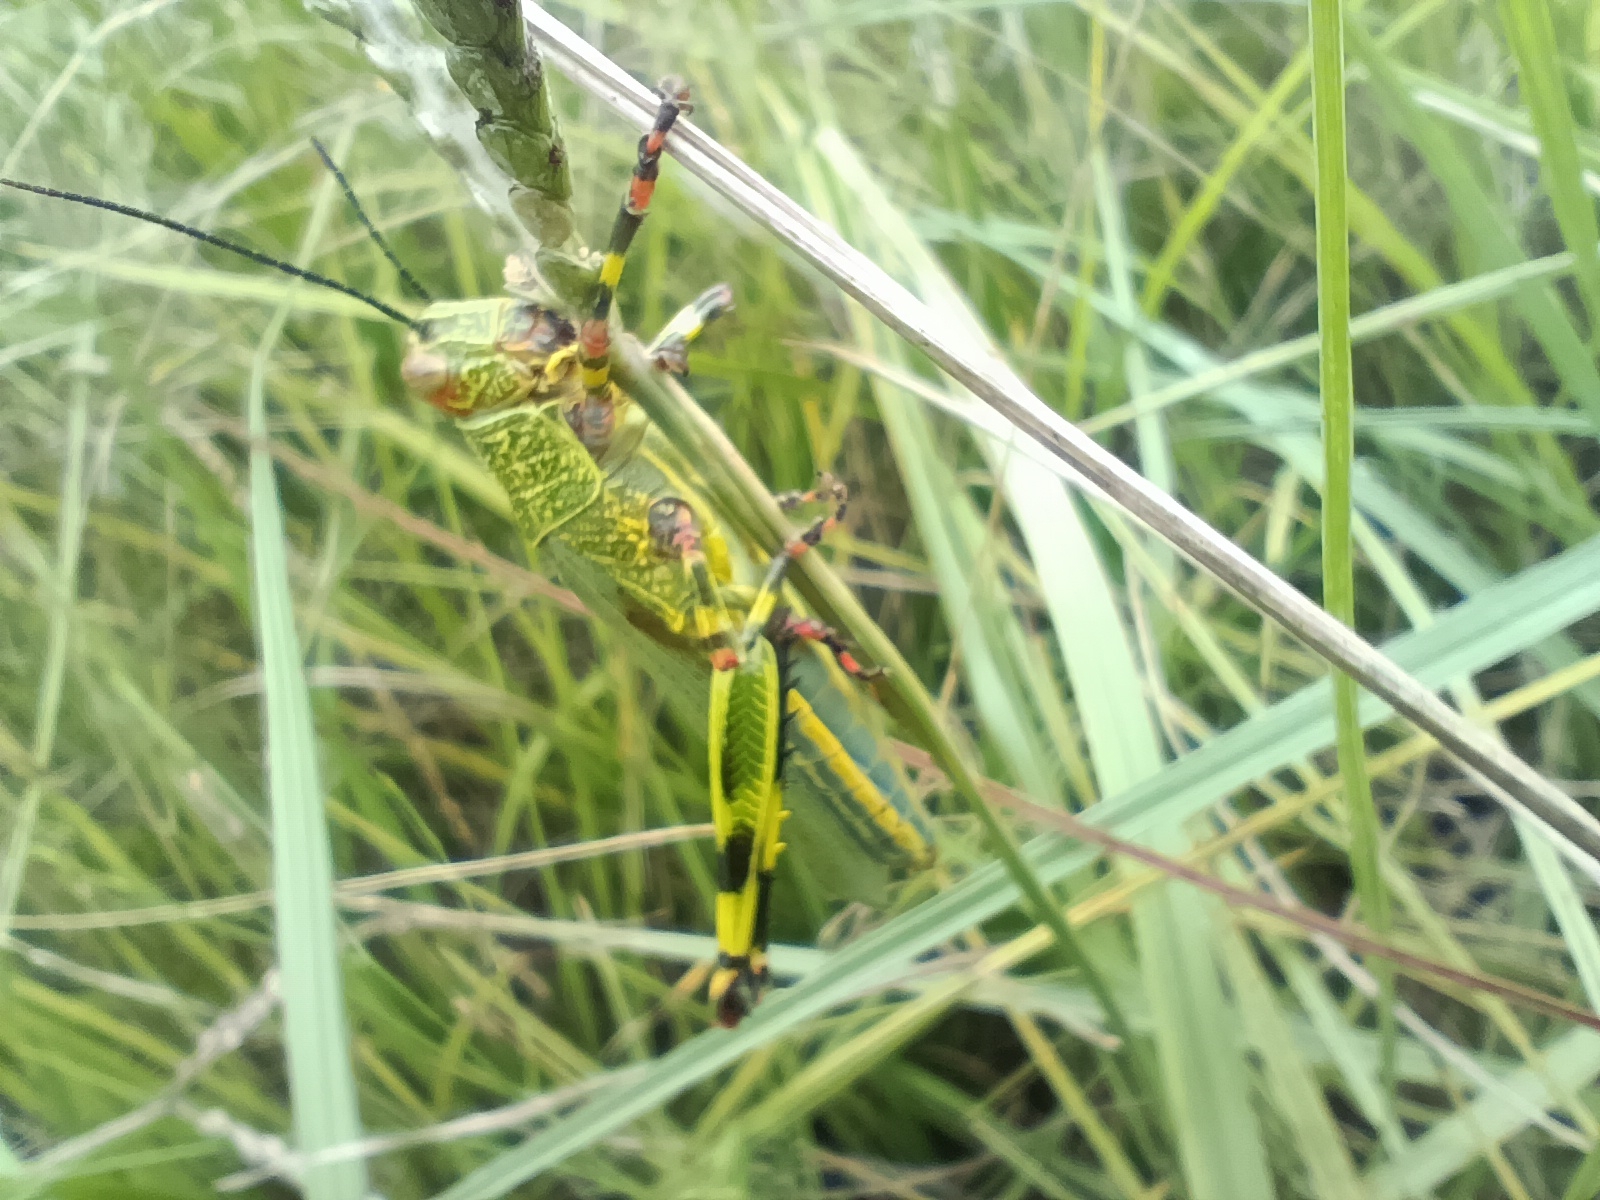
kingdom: Animalia
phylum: Arthropoda
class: Insecta
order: Orthoptera
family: Romaleidae
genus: Zoniopoda
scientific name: Zoniopoda tarsata
